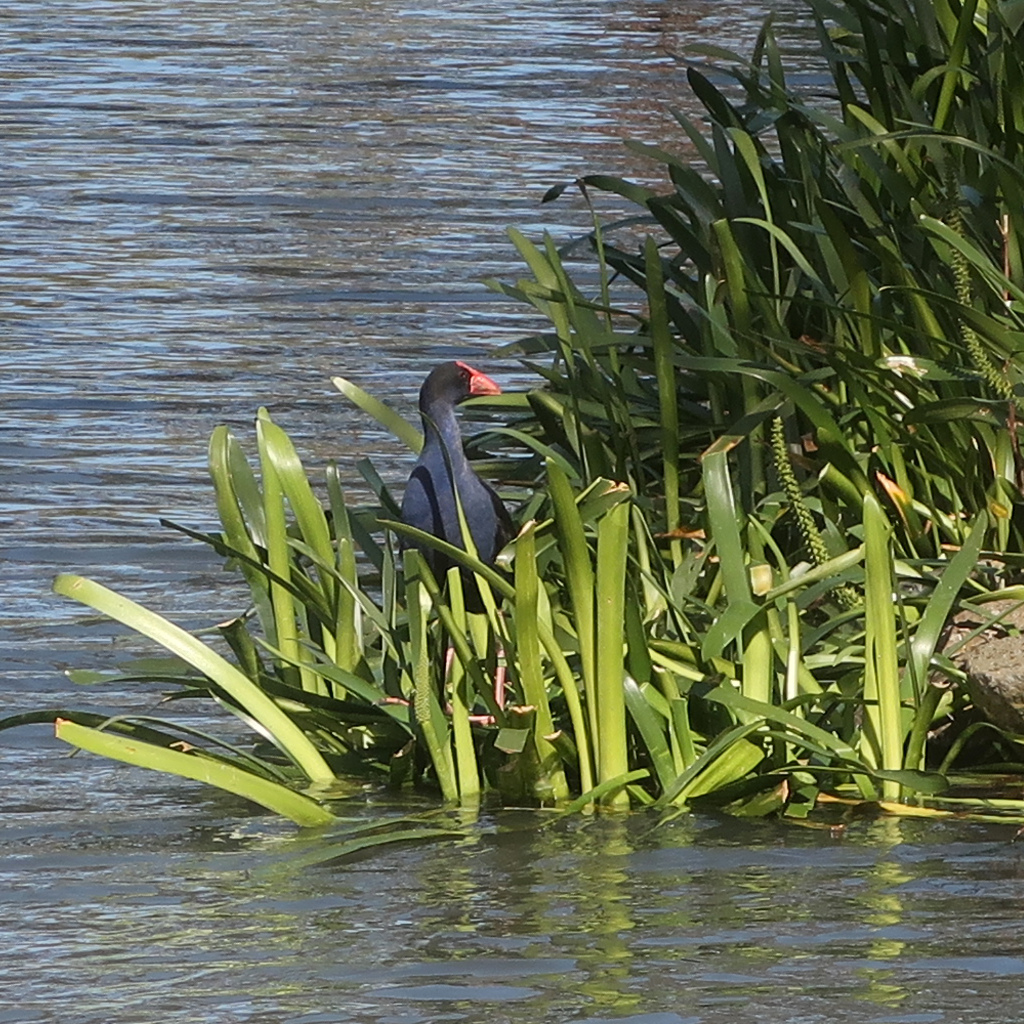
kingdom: Animalia
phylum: Chordata
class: Aves
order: Gruiformes
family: Rallidae
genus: Porphyrio
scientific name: Porphyrio melanotus
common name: Australasian swamphen
